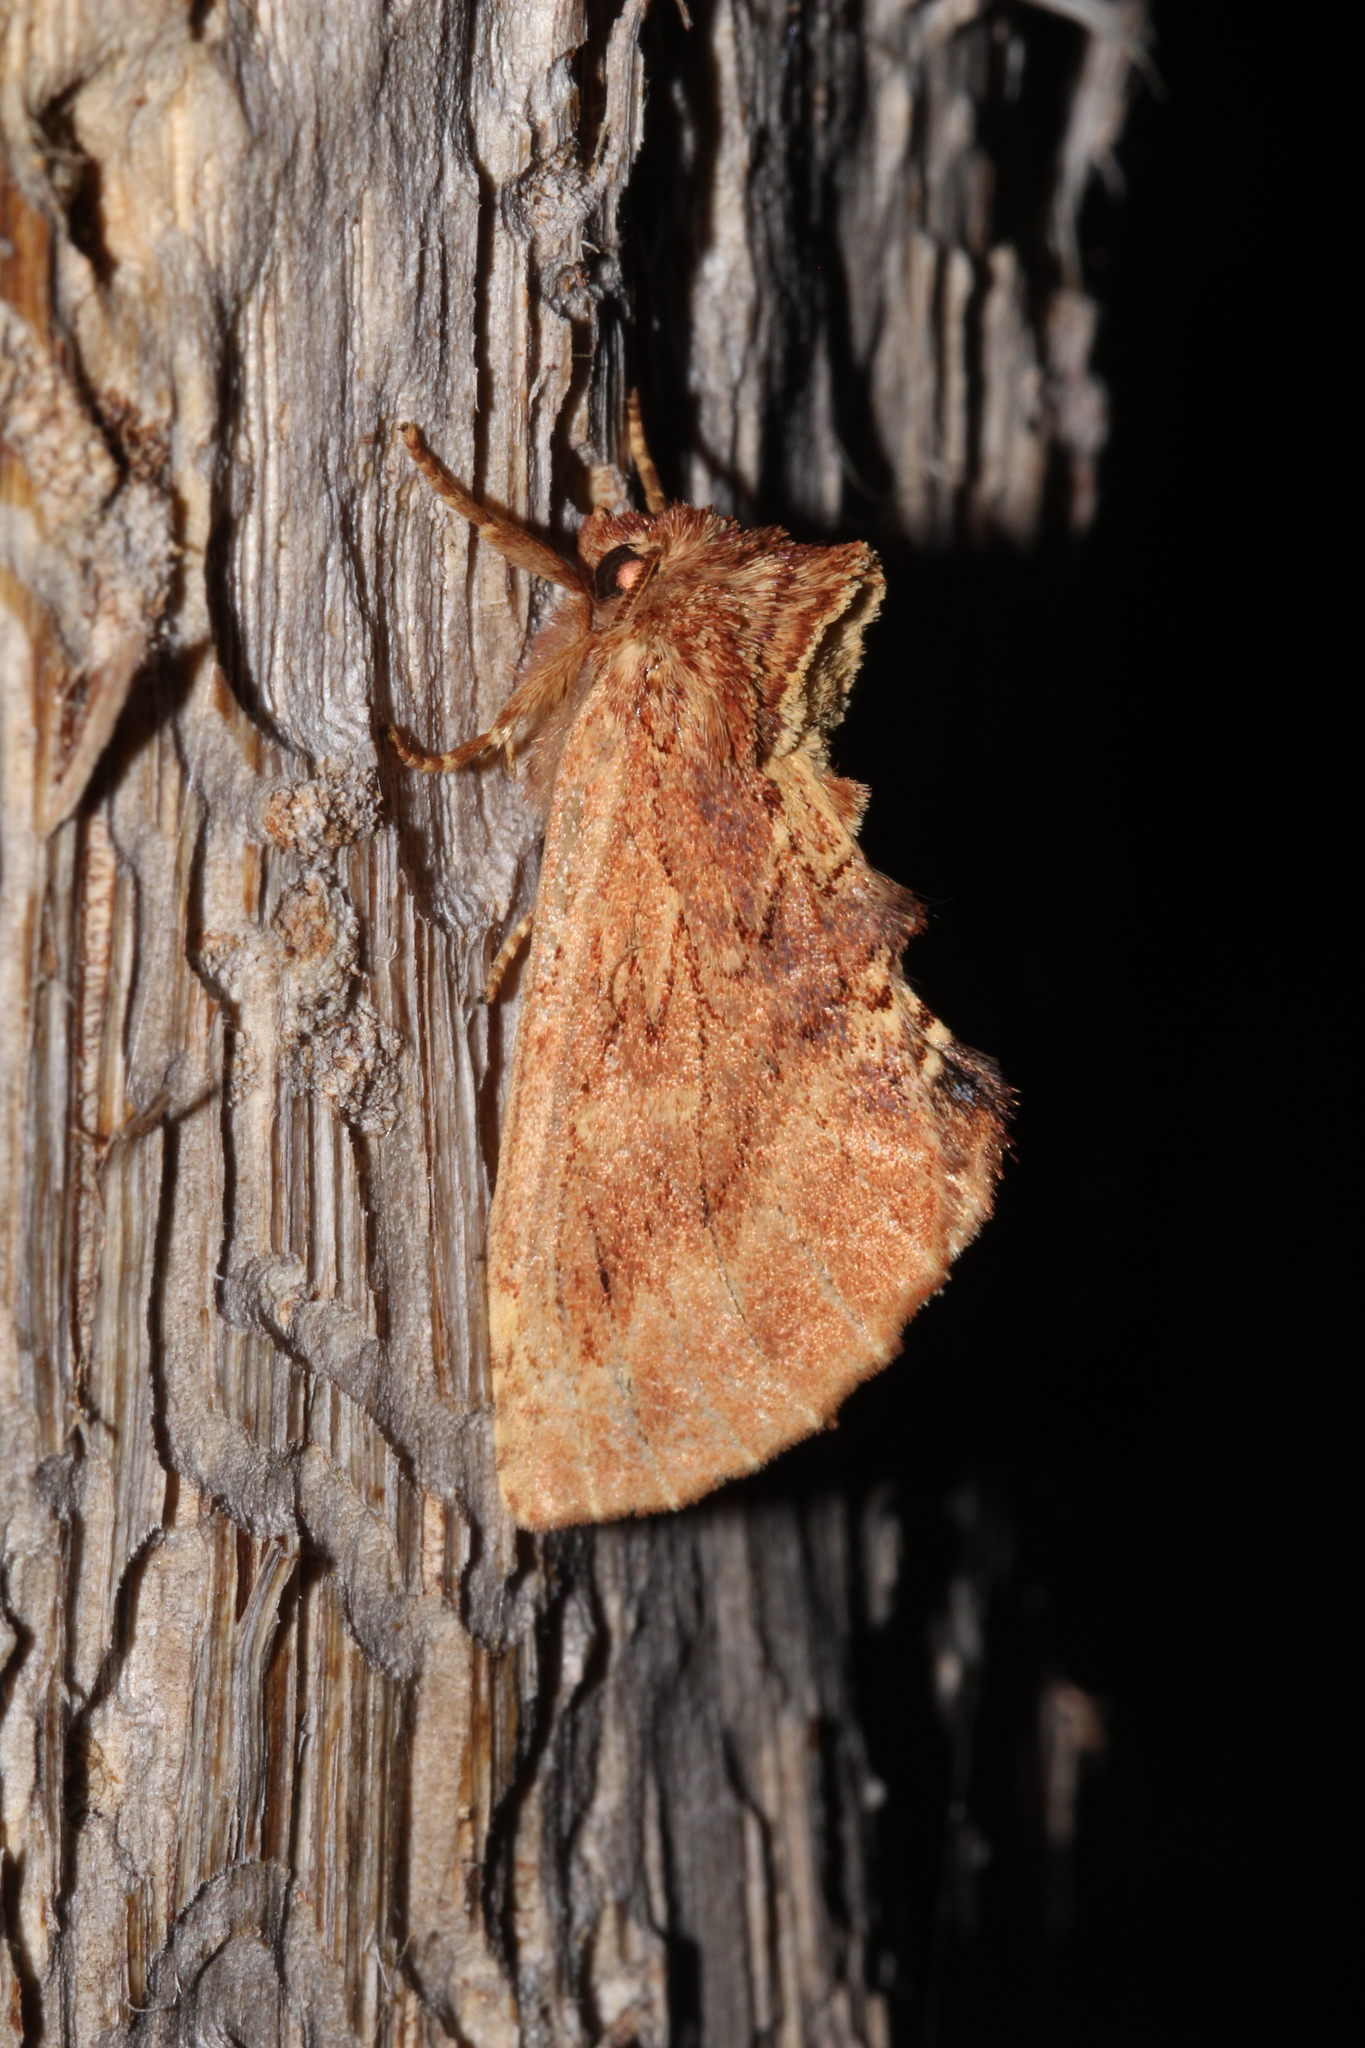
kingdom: Animalia
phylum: Arthropoda
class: Insecta
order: Lepidoptera
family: Notodontidae
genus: Ptilodon
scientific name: Ptilodon capucina
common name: Coxcomb prominent
